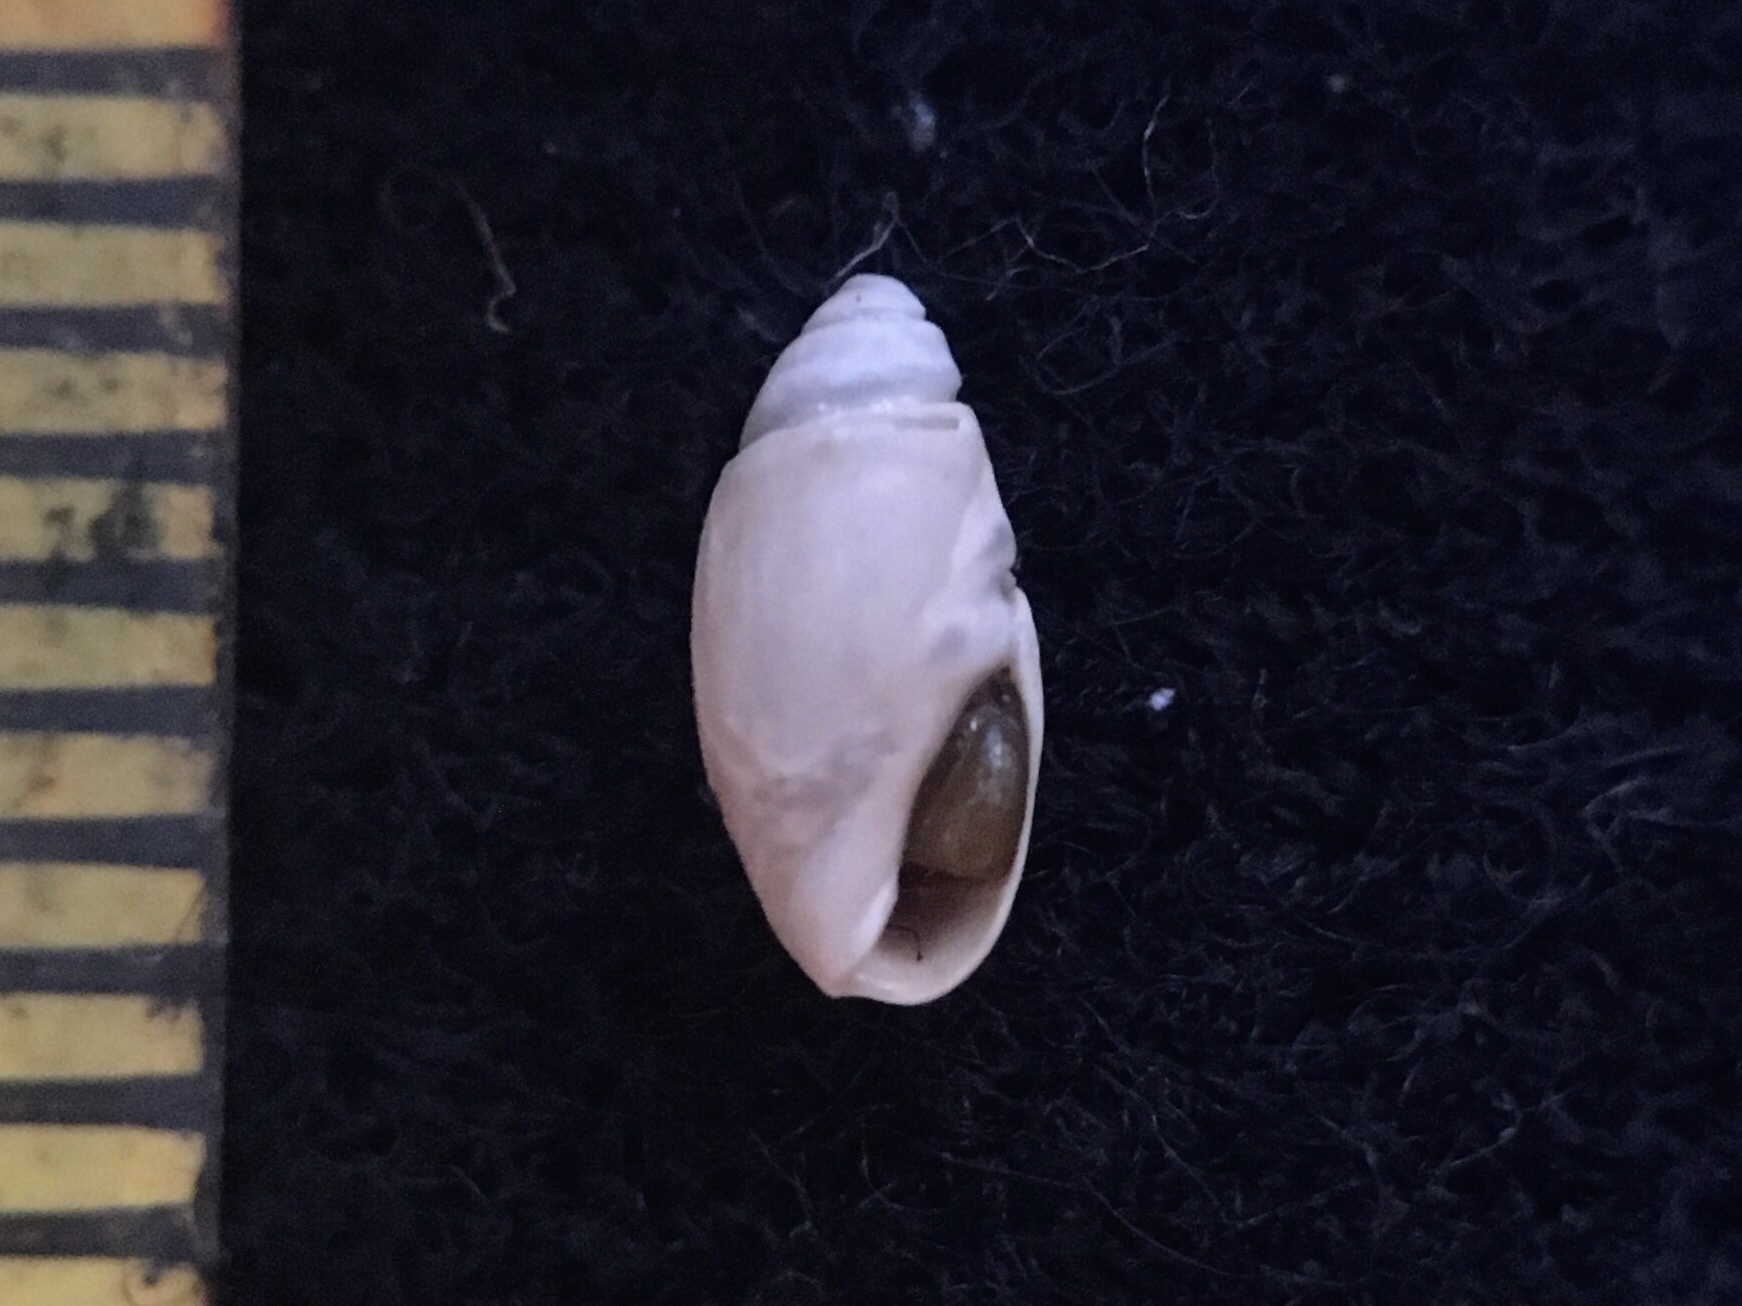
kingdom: Animalia
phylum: Mollusca
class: Gastropoda
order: Neogastropoda
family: Olividae
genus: Olivella
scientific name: Olivella puelcha
